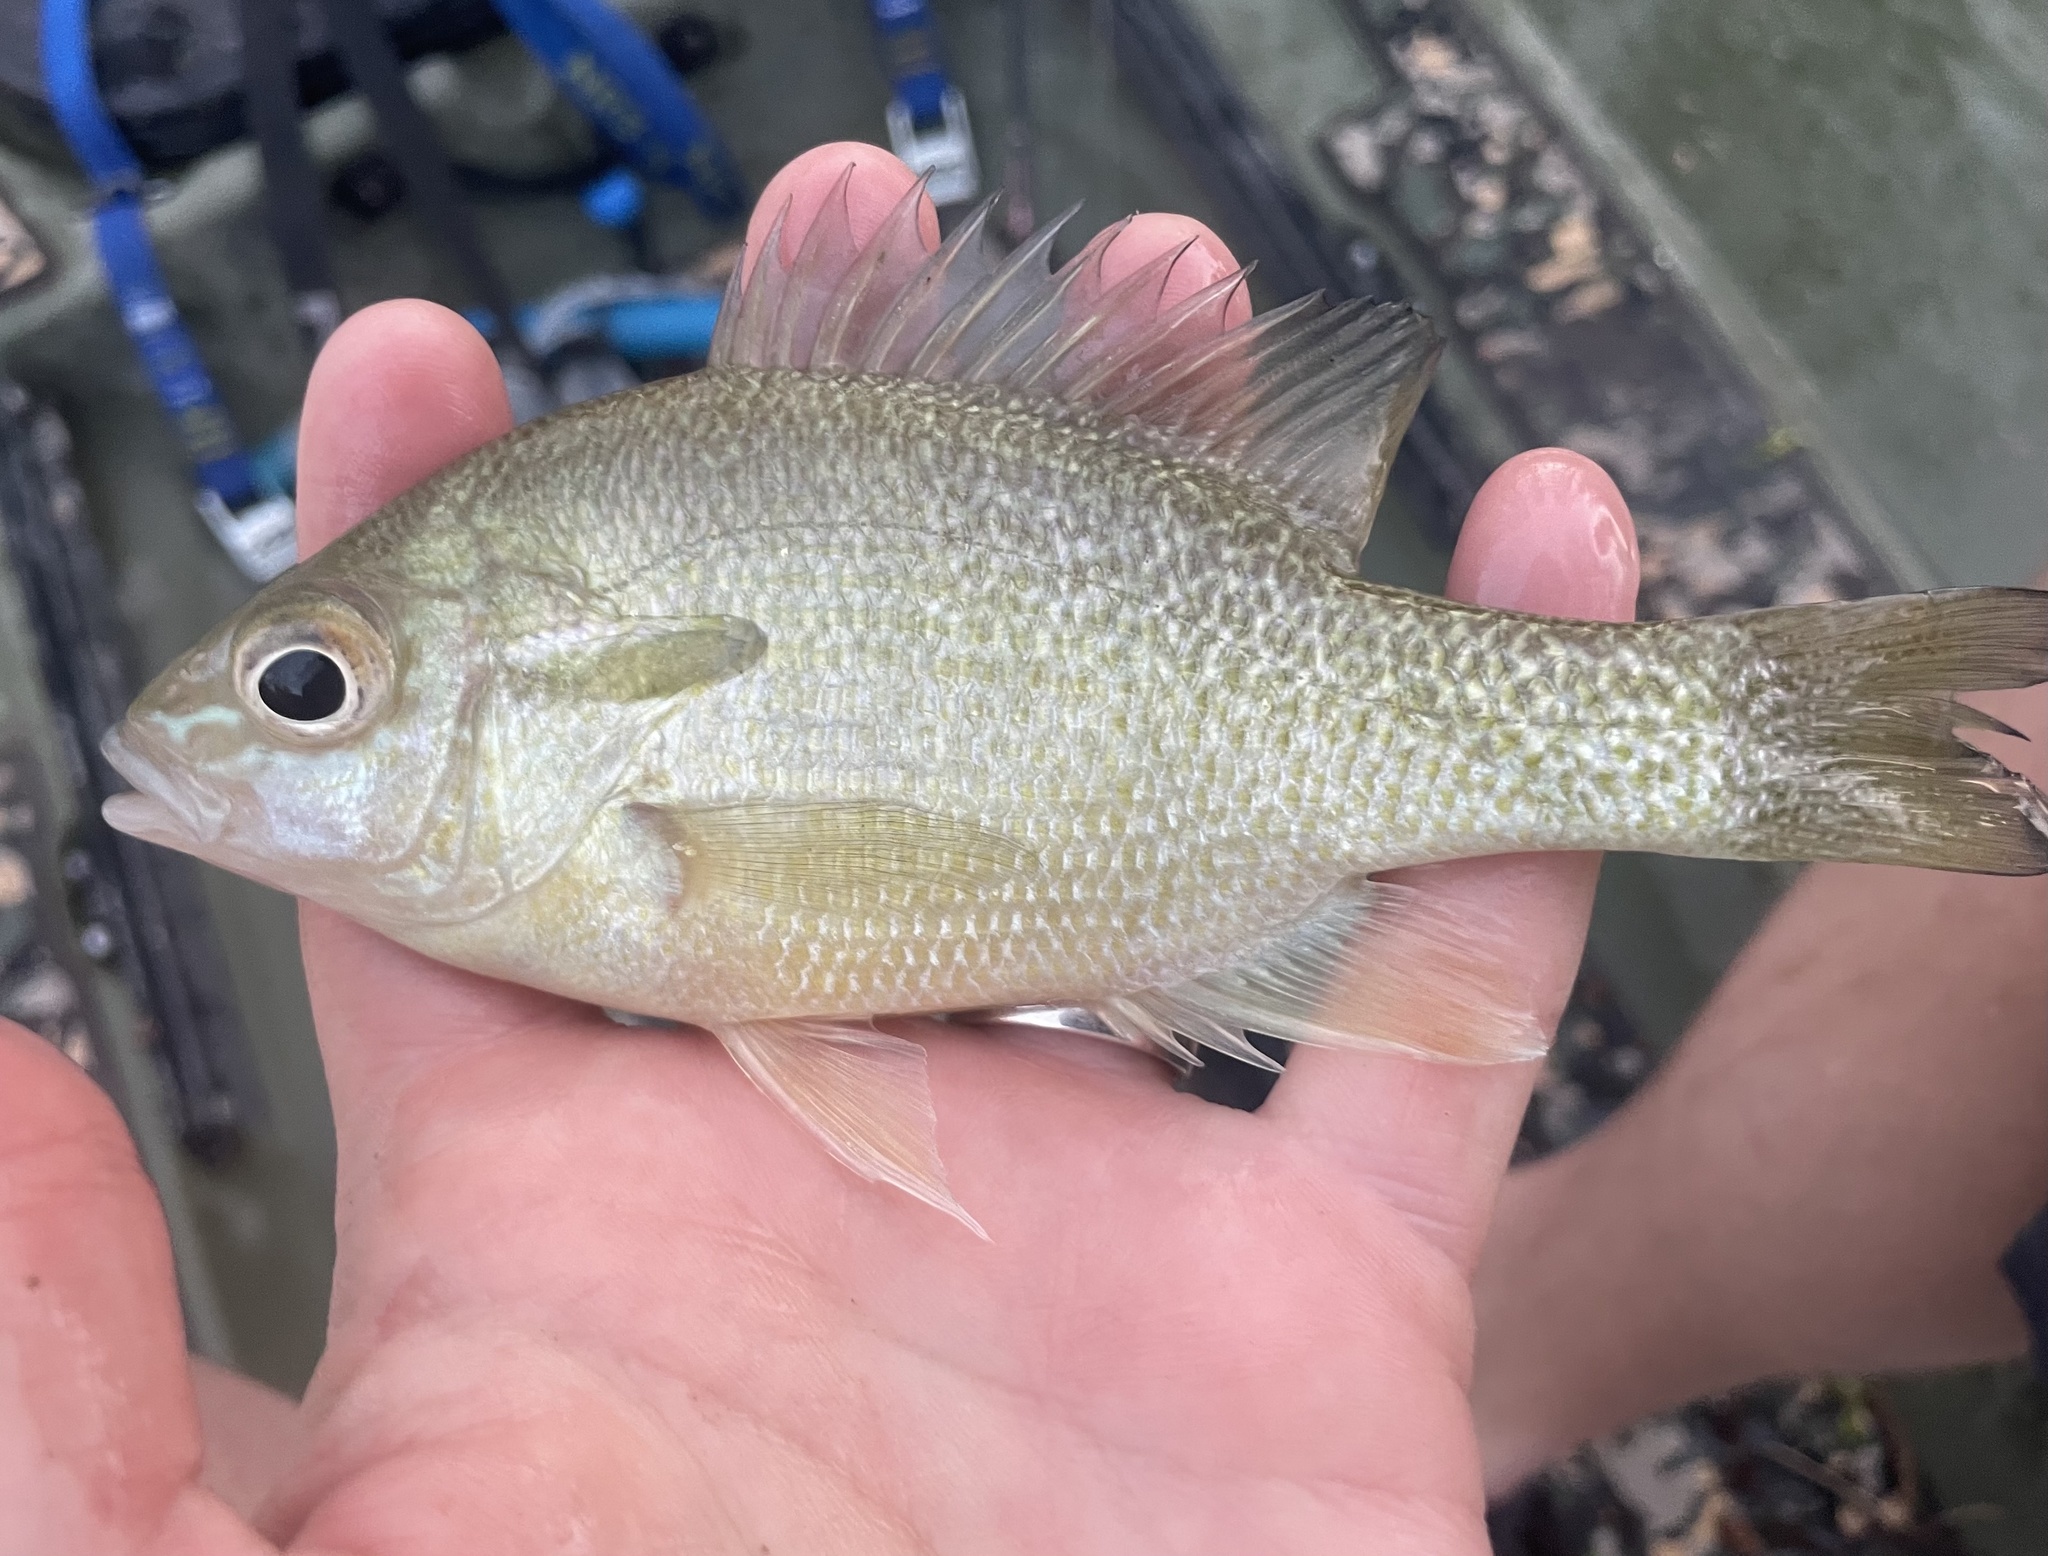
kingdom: Animalia
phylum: Chordata
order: Perciformes
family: Centrarchidae
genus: Lepomis
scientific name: Lepomis auritus
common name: Redbreast sunfish
